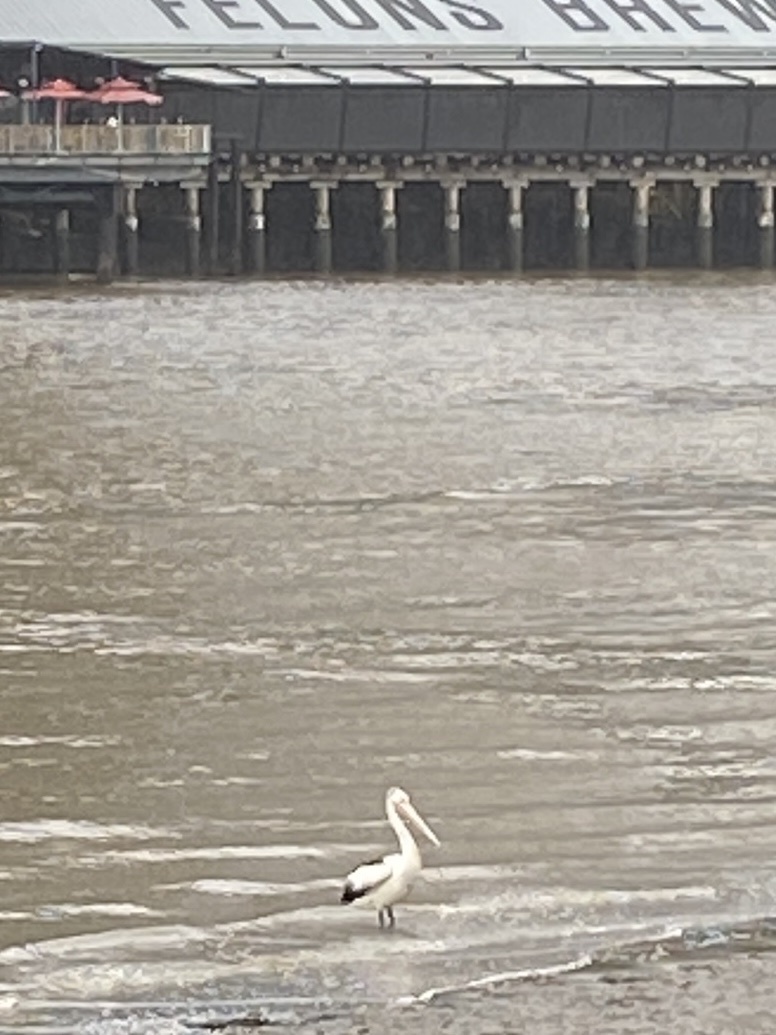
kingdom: Animalia
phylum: Chordata
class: Aves
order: Pelecaniformes
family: Pelecanidae
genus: Pelecanus
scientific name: Pelecanus conspicillatus
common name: Australian pelican
